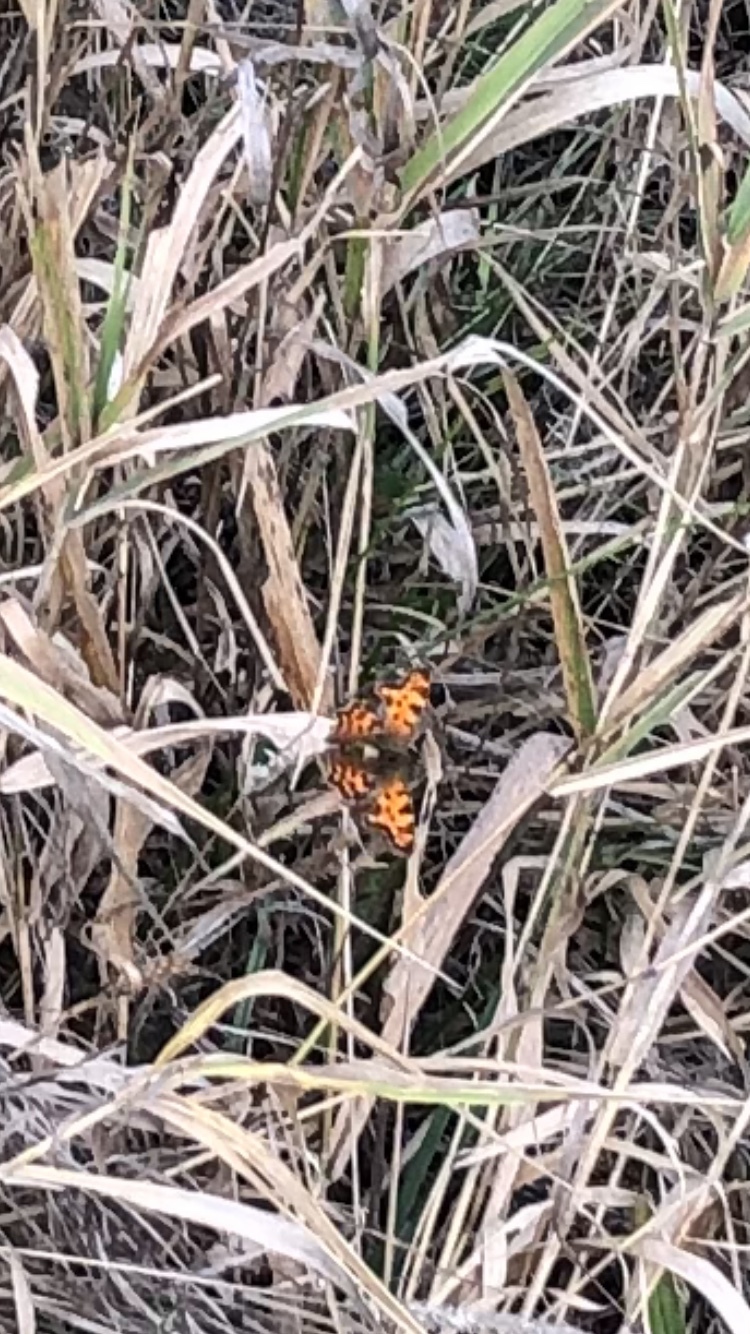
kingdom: Animalia
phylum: Arthropoda
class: Insecta
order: Lepidoptera
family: Nymphalidae
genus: Polygonia
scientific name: Polygonia c-album
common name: Comma
